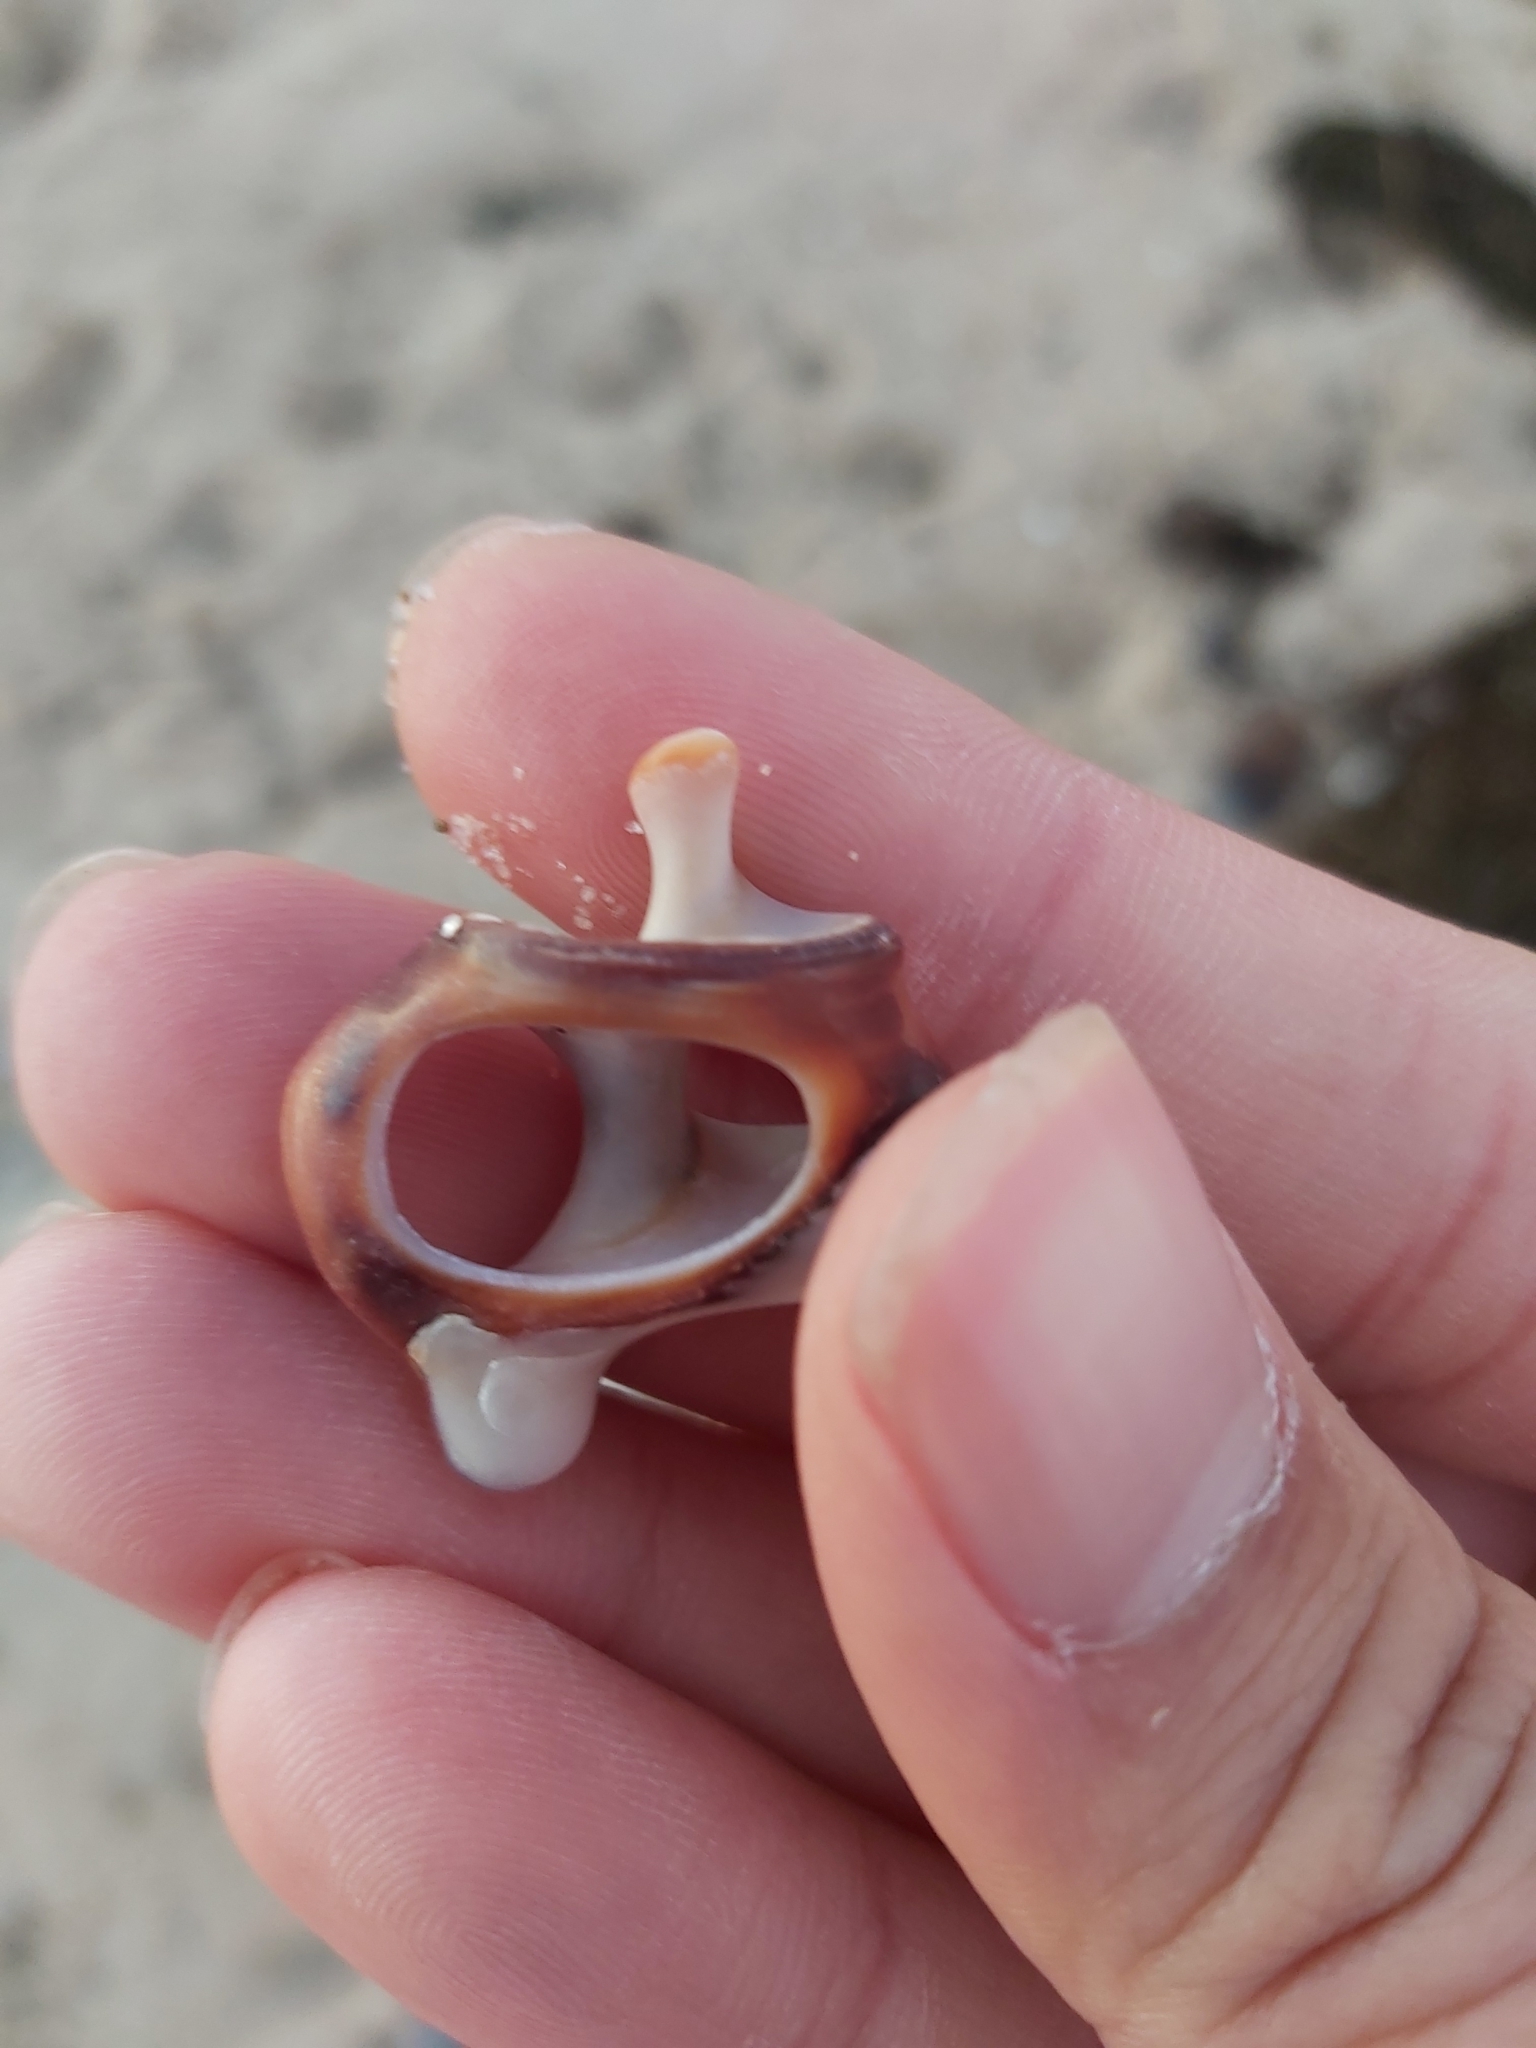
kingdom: Animalia
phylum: Mollusca
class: Gastropoda
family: Batillariidae
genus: Pyrazus
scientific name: Pyrazus ebeninus
